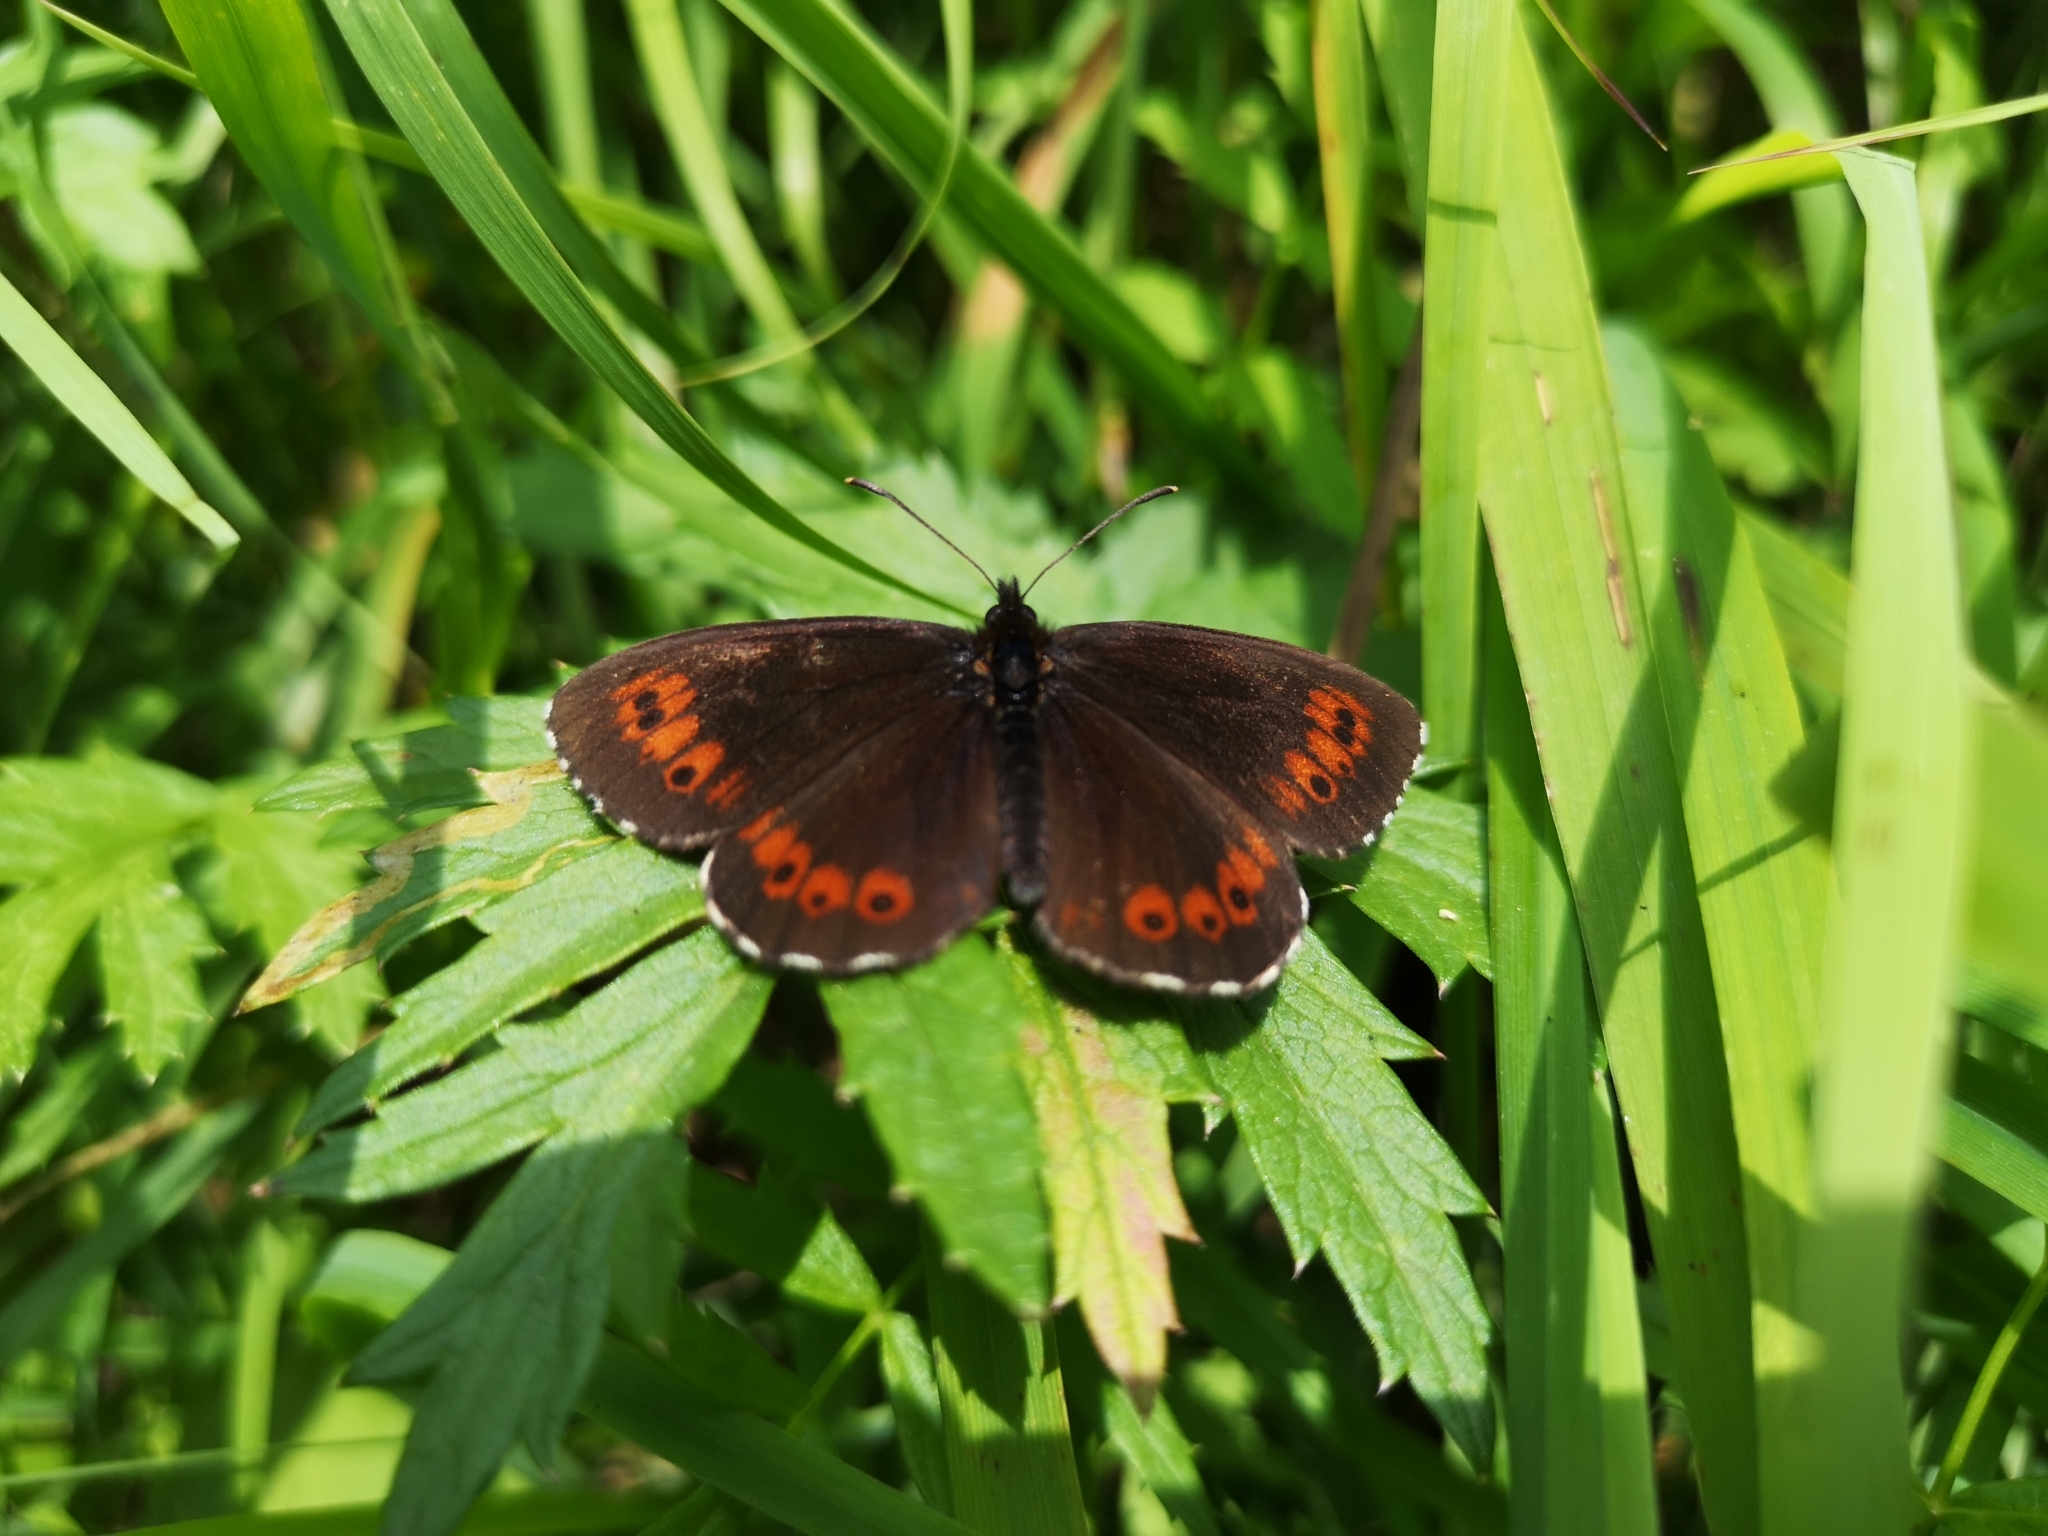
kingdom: Animalia
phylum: Arthropoda
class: Insecta
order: Lepidoptera
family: Nymphalidae
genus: Erebia
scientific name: Erebia ligea
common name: Arran brown
